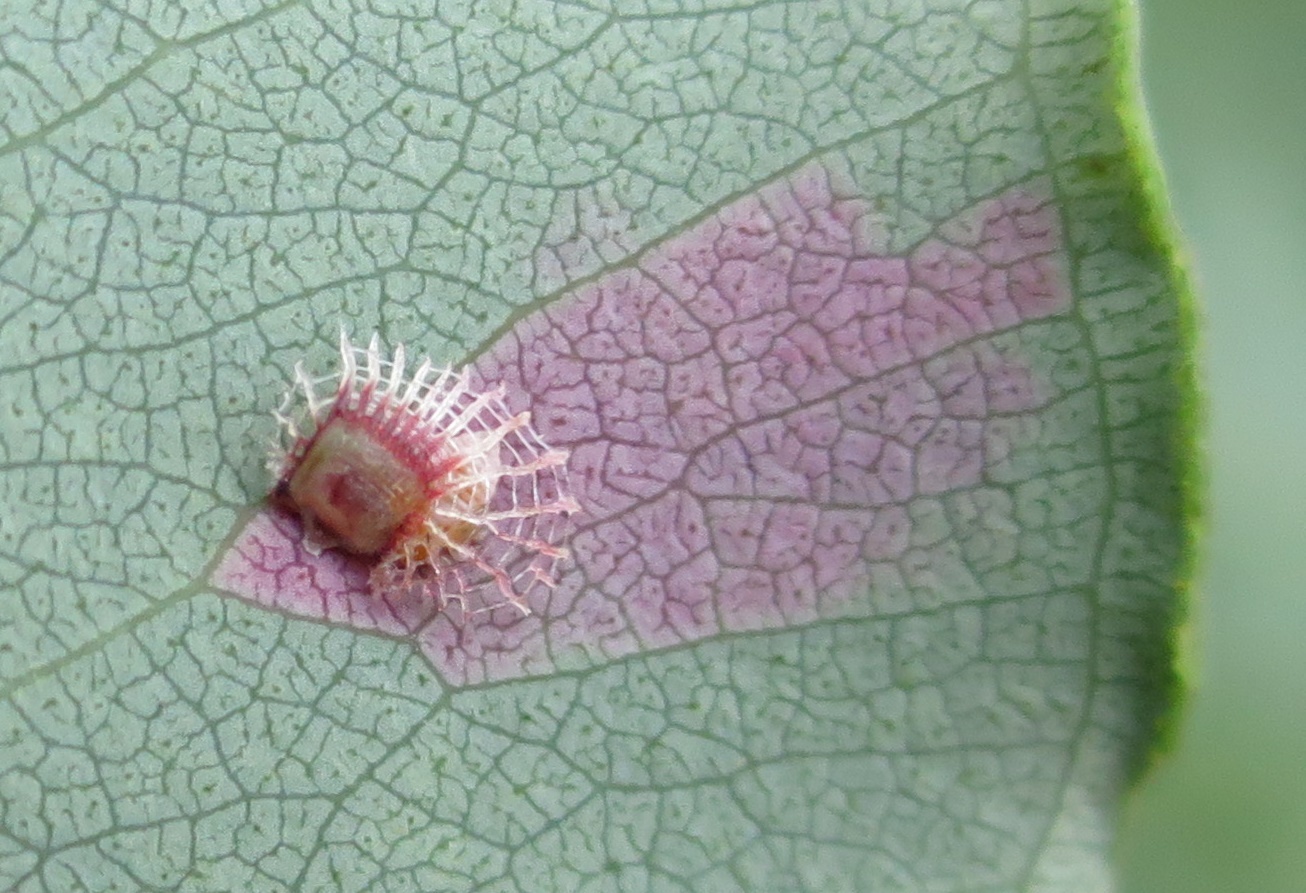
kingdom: Animalia
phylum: Arthropoda
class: Insecta
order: Hemiptera
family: Aphalaridae
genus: Cardiaspina
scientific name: Cardiaspina fiscella
